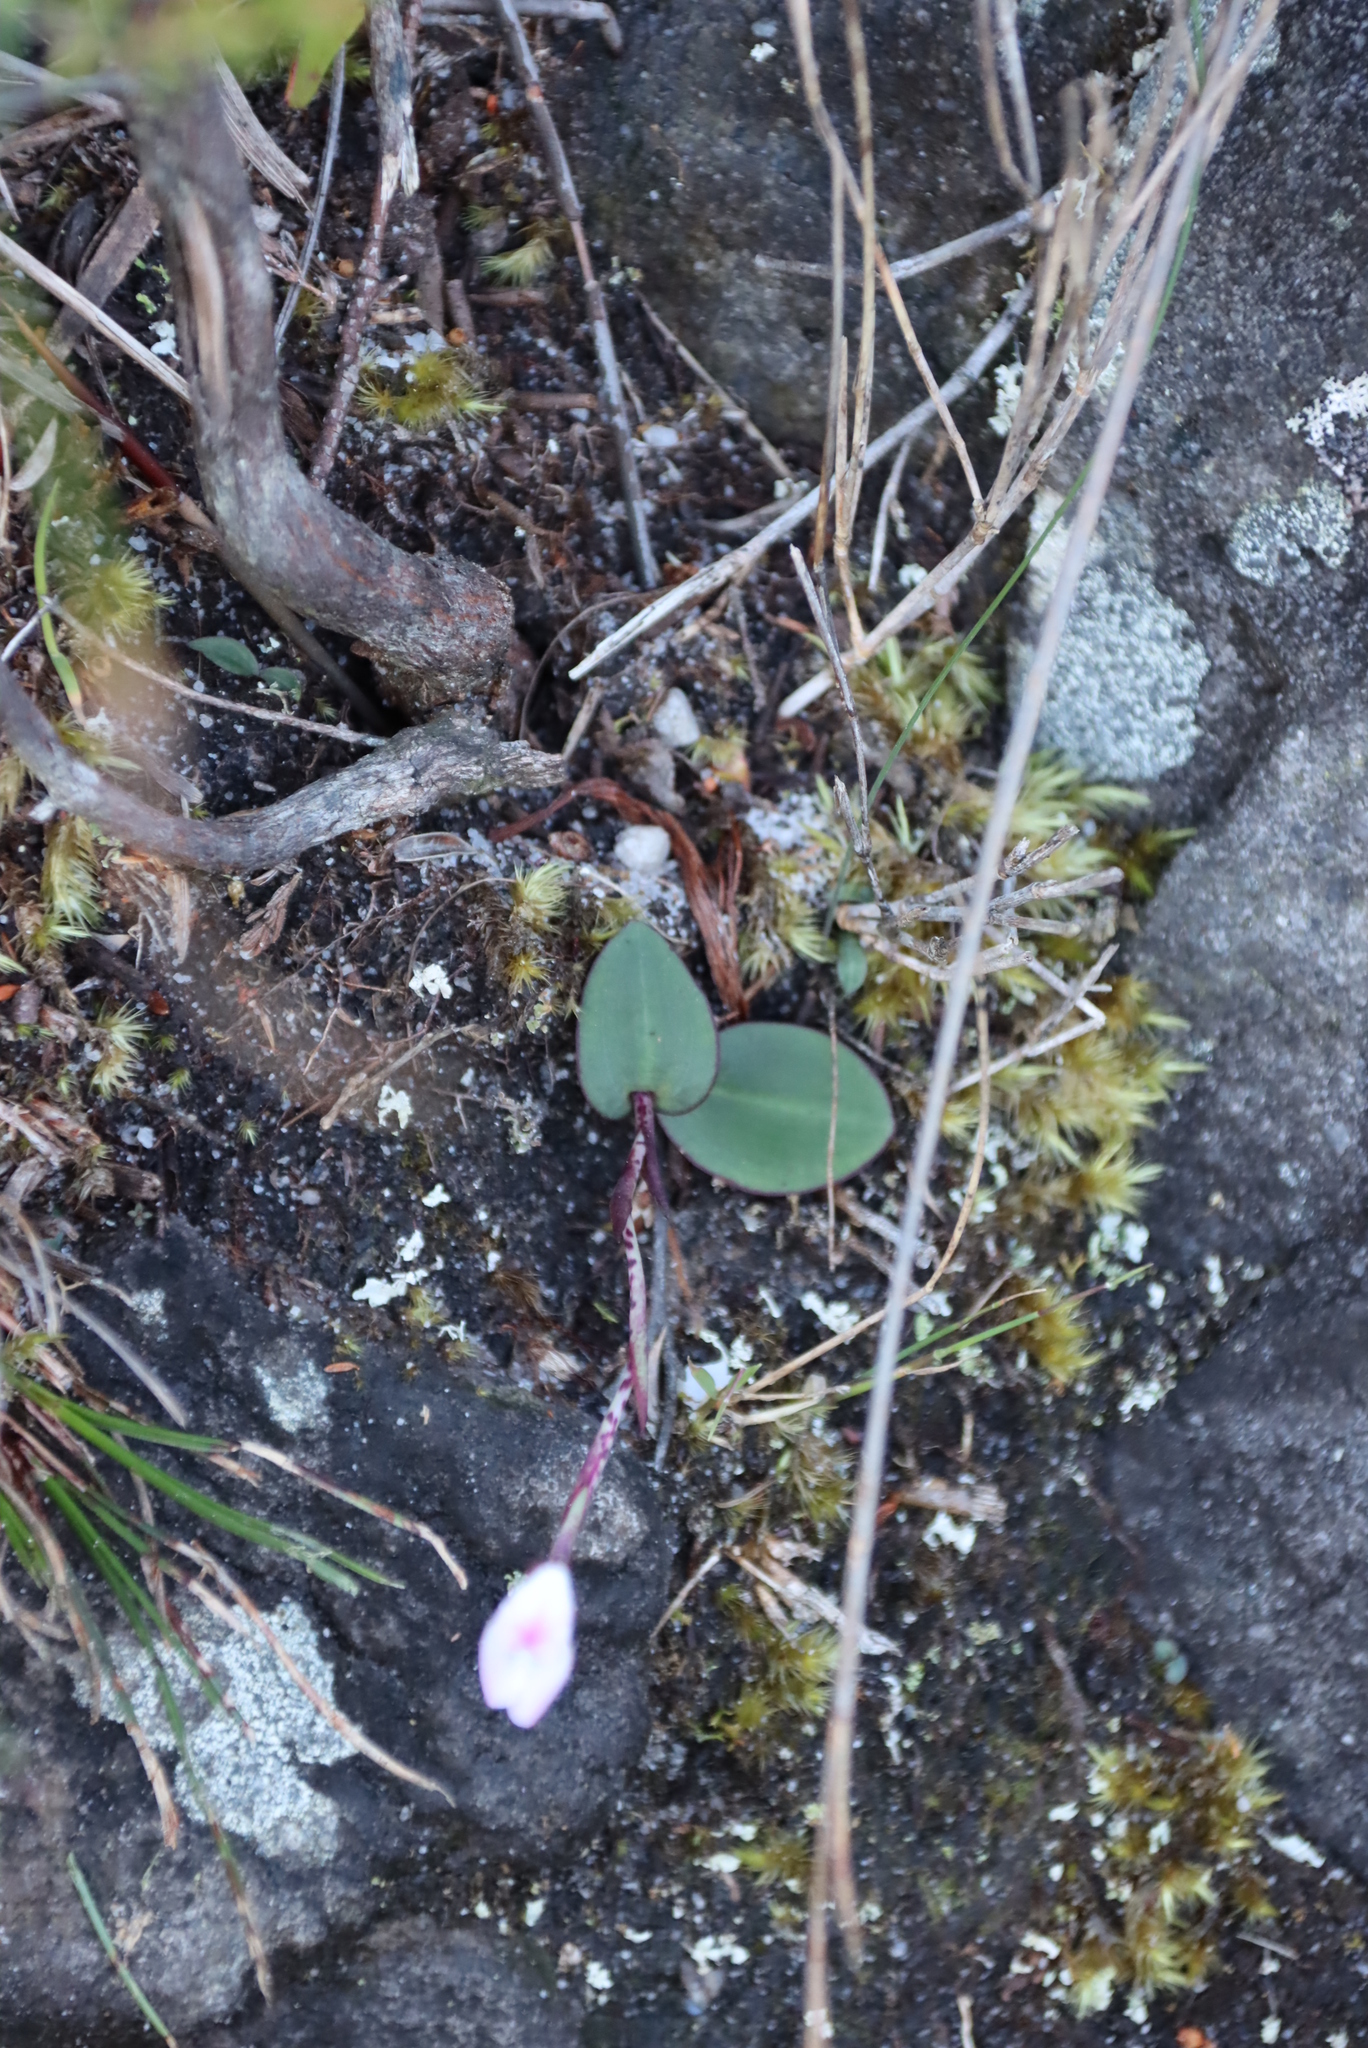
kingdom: Plantae
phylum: Tracheophyta
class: Liliopsida
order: Asparagales
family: Orchidaceae
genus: Disa
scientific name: Disa rosea
